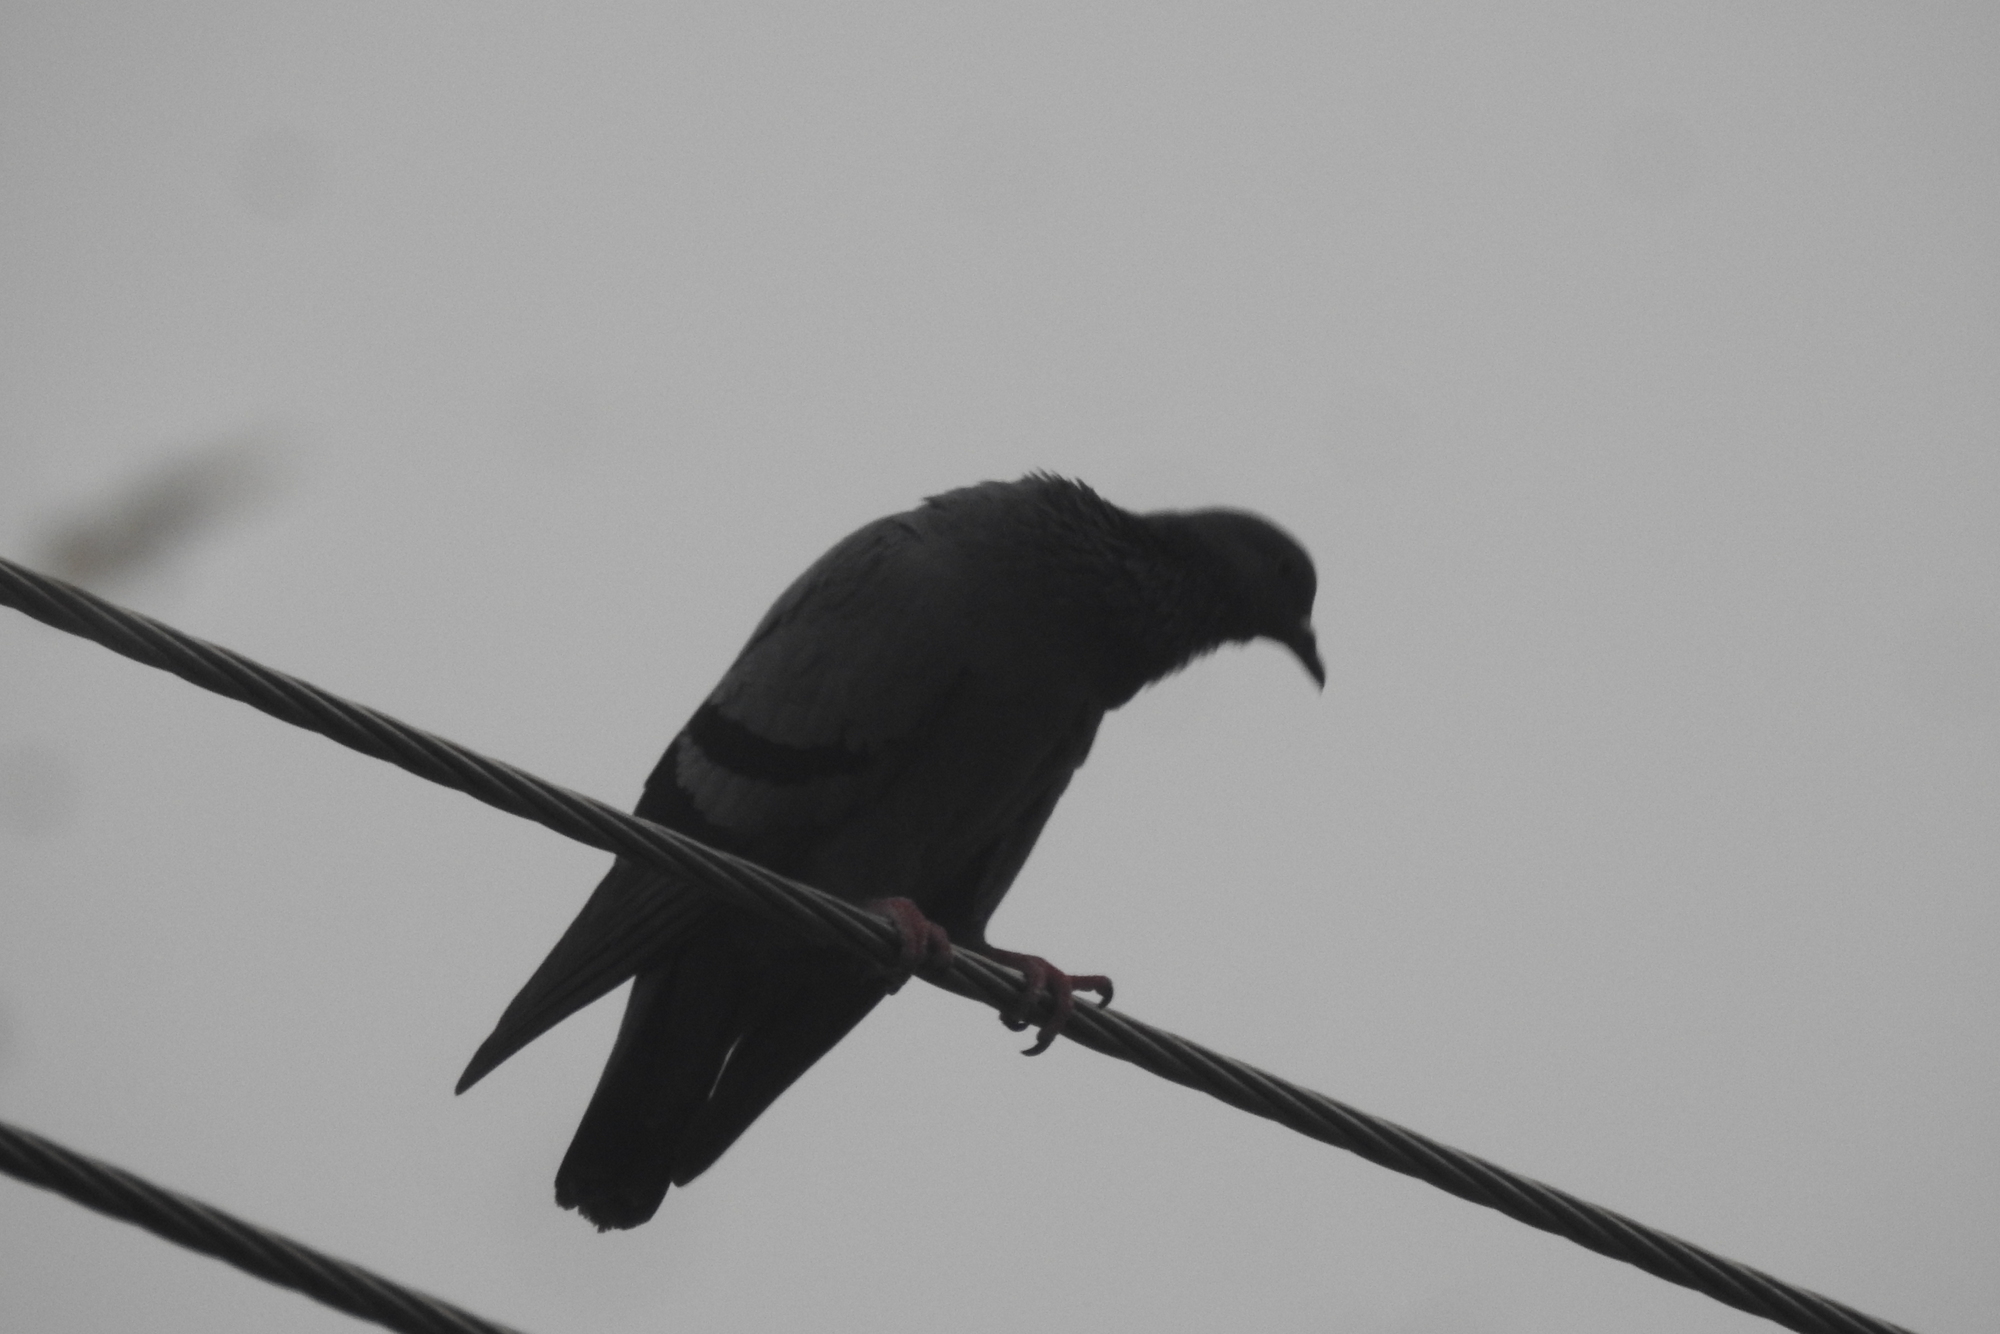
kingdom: Animalia
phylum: Chordata
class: Aves
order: Columbiformes
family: Columbidae
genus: Columba
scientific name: Columba livia
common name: Rock pigeon
